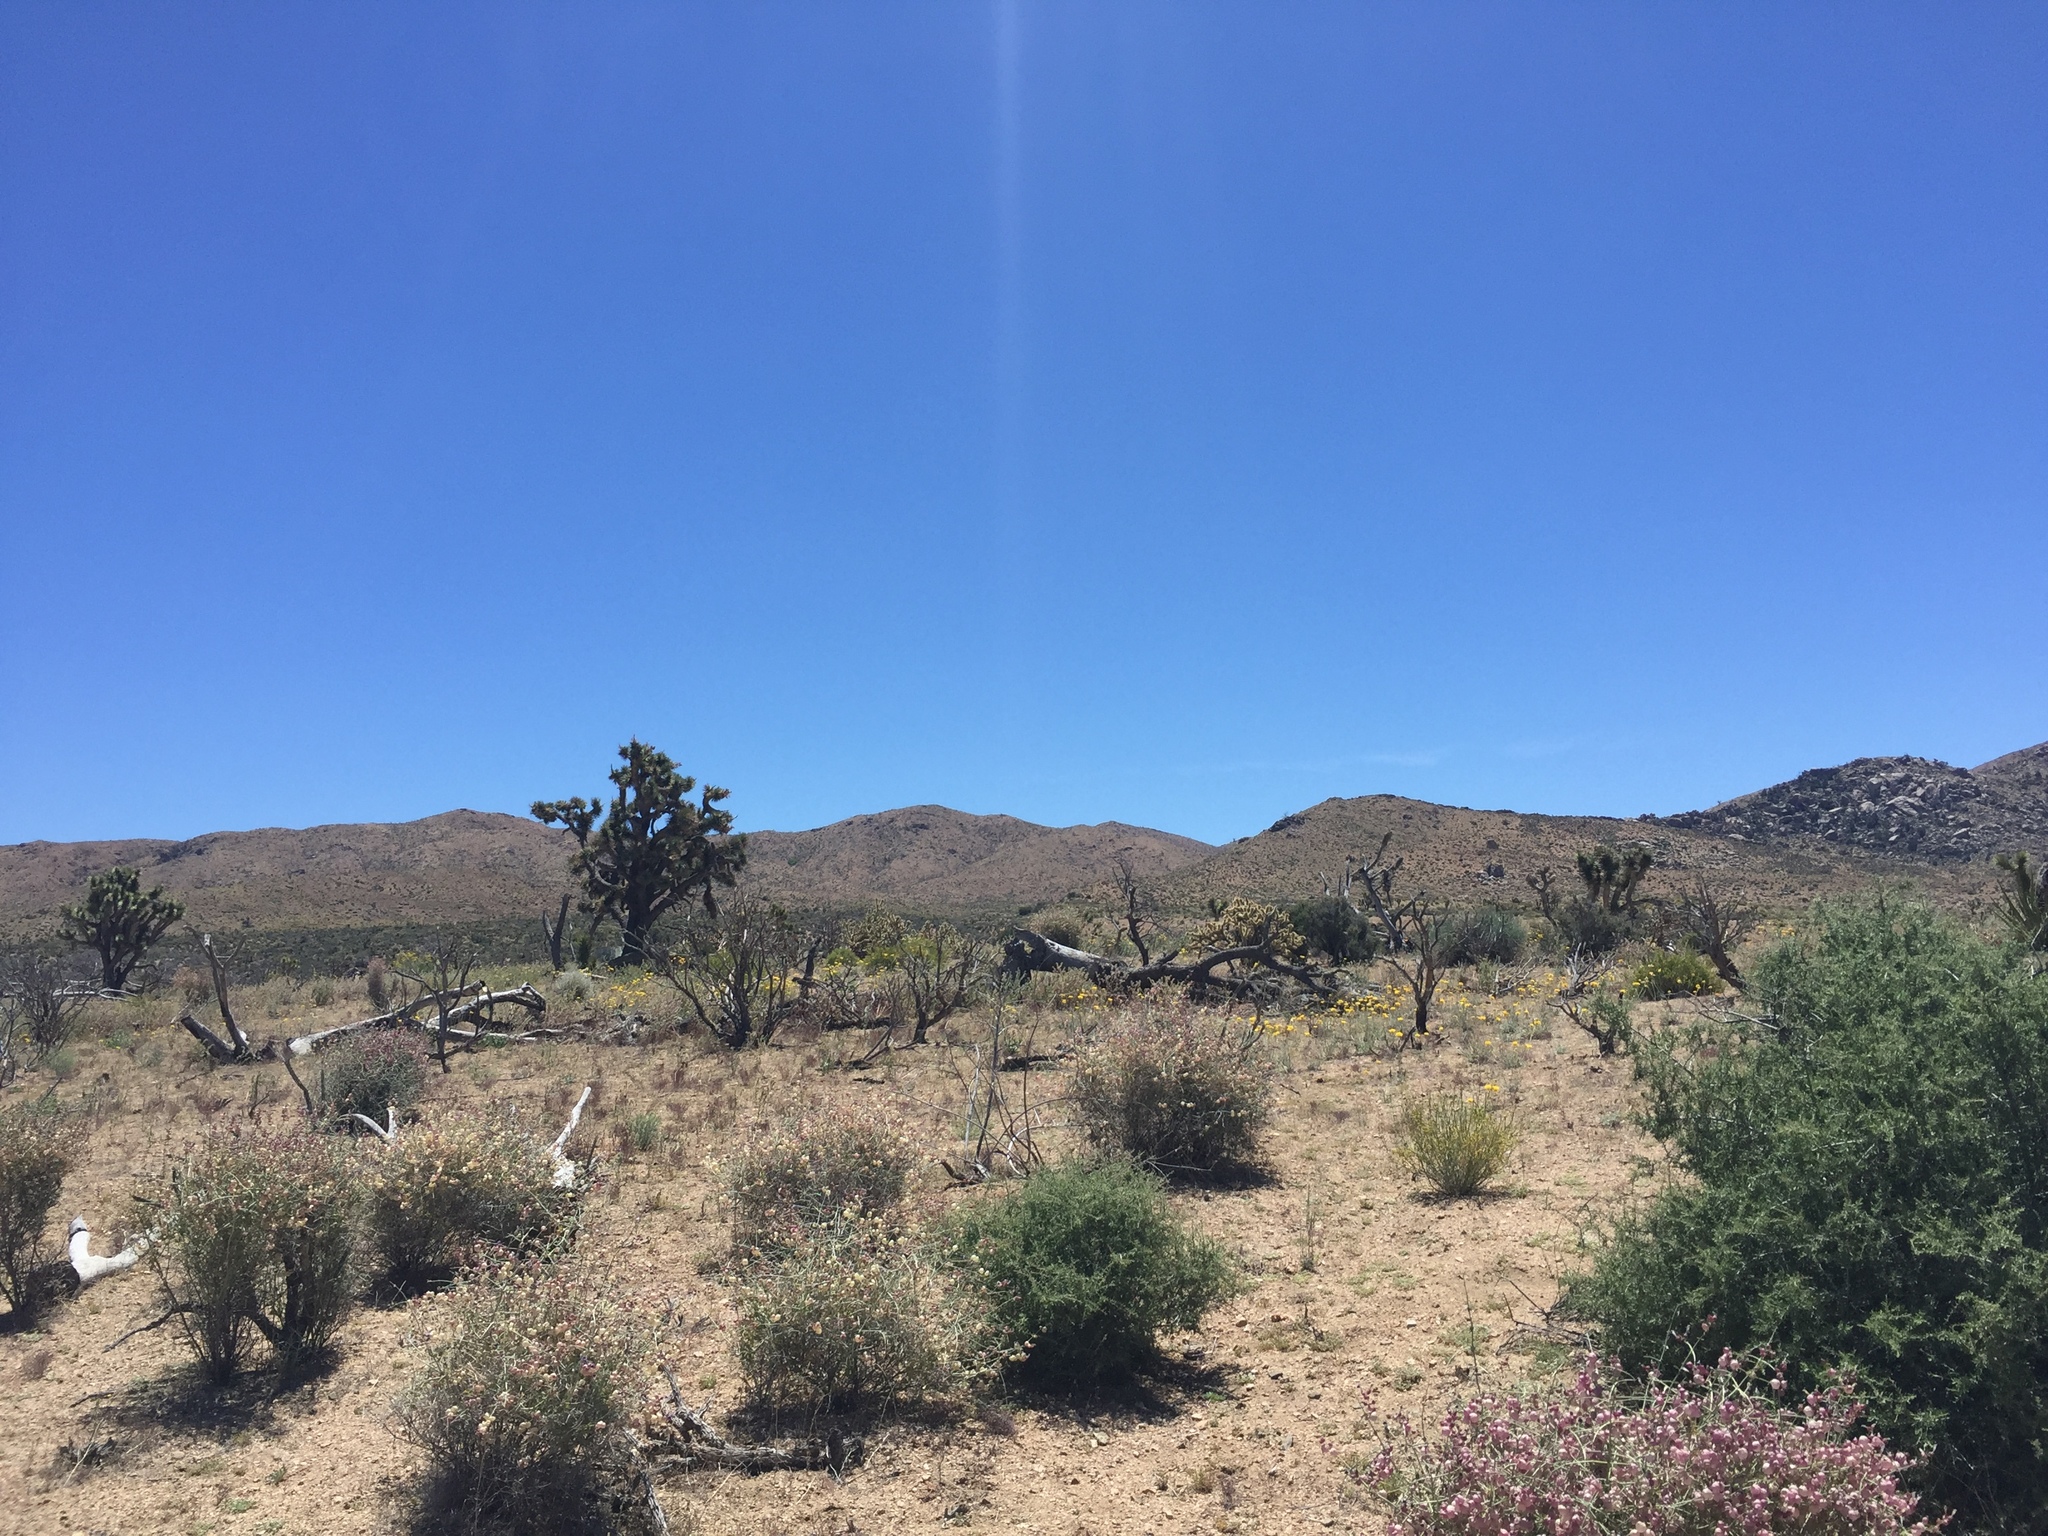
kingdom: Plantae
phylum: Tracheophyta
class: Liliopsida
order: Asparagales
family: Asparagaceae
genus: Yucca
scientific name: Yucca brevifolia
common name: Joshua tree
